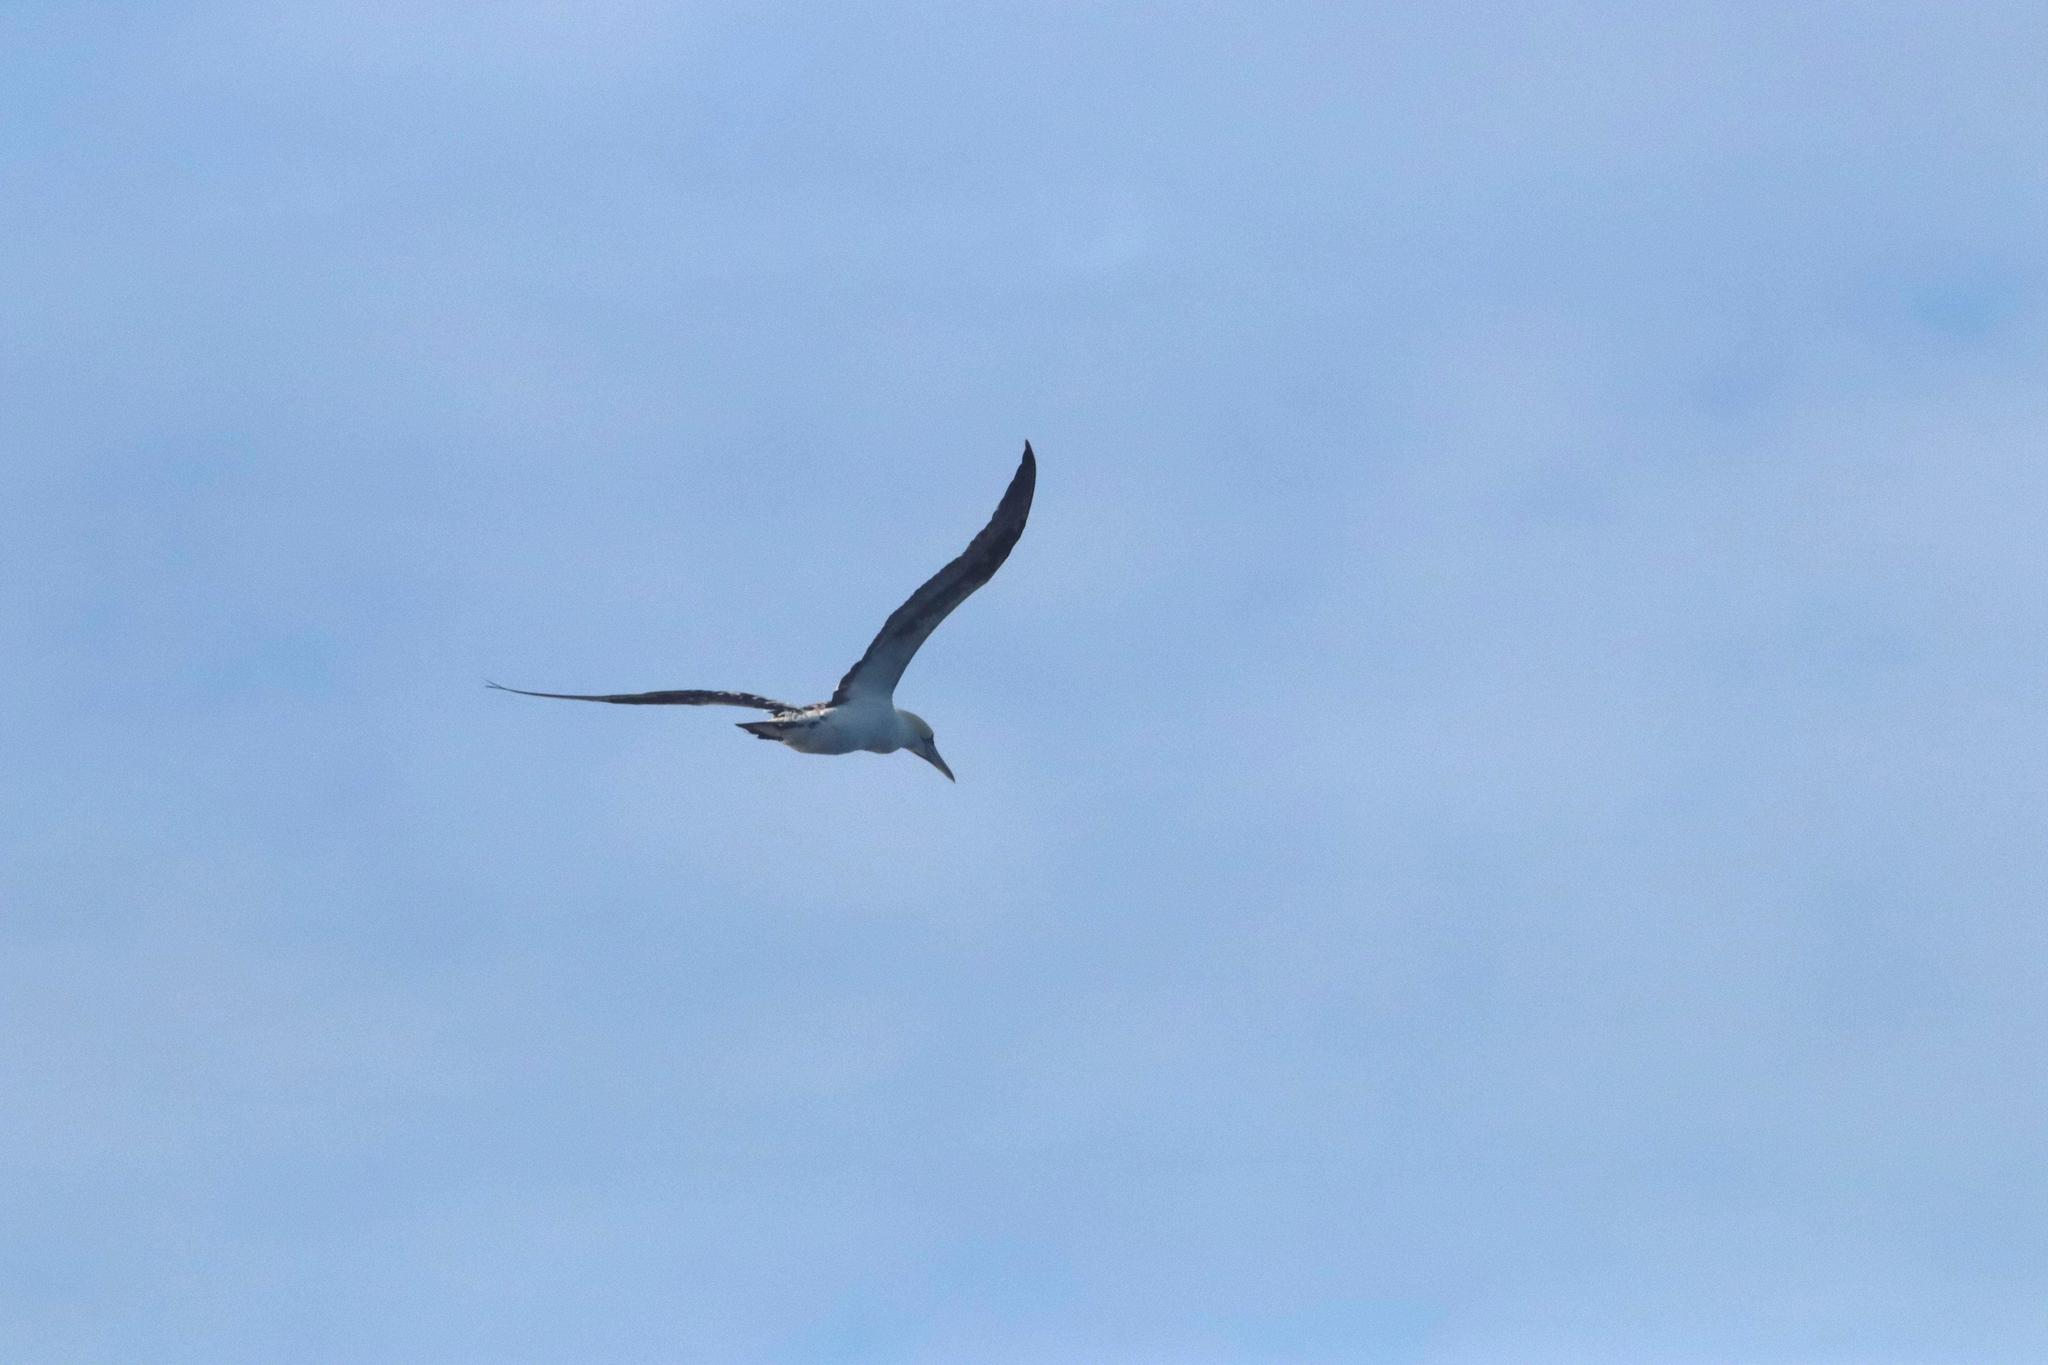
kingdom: Animalia
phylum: Chordata
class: Aves
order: Suliformes
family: Sulidae
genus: Morus
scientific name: Morus bassanus
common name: Northern gannet
